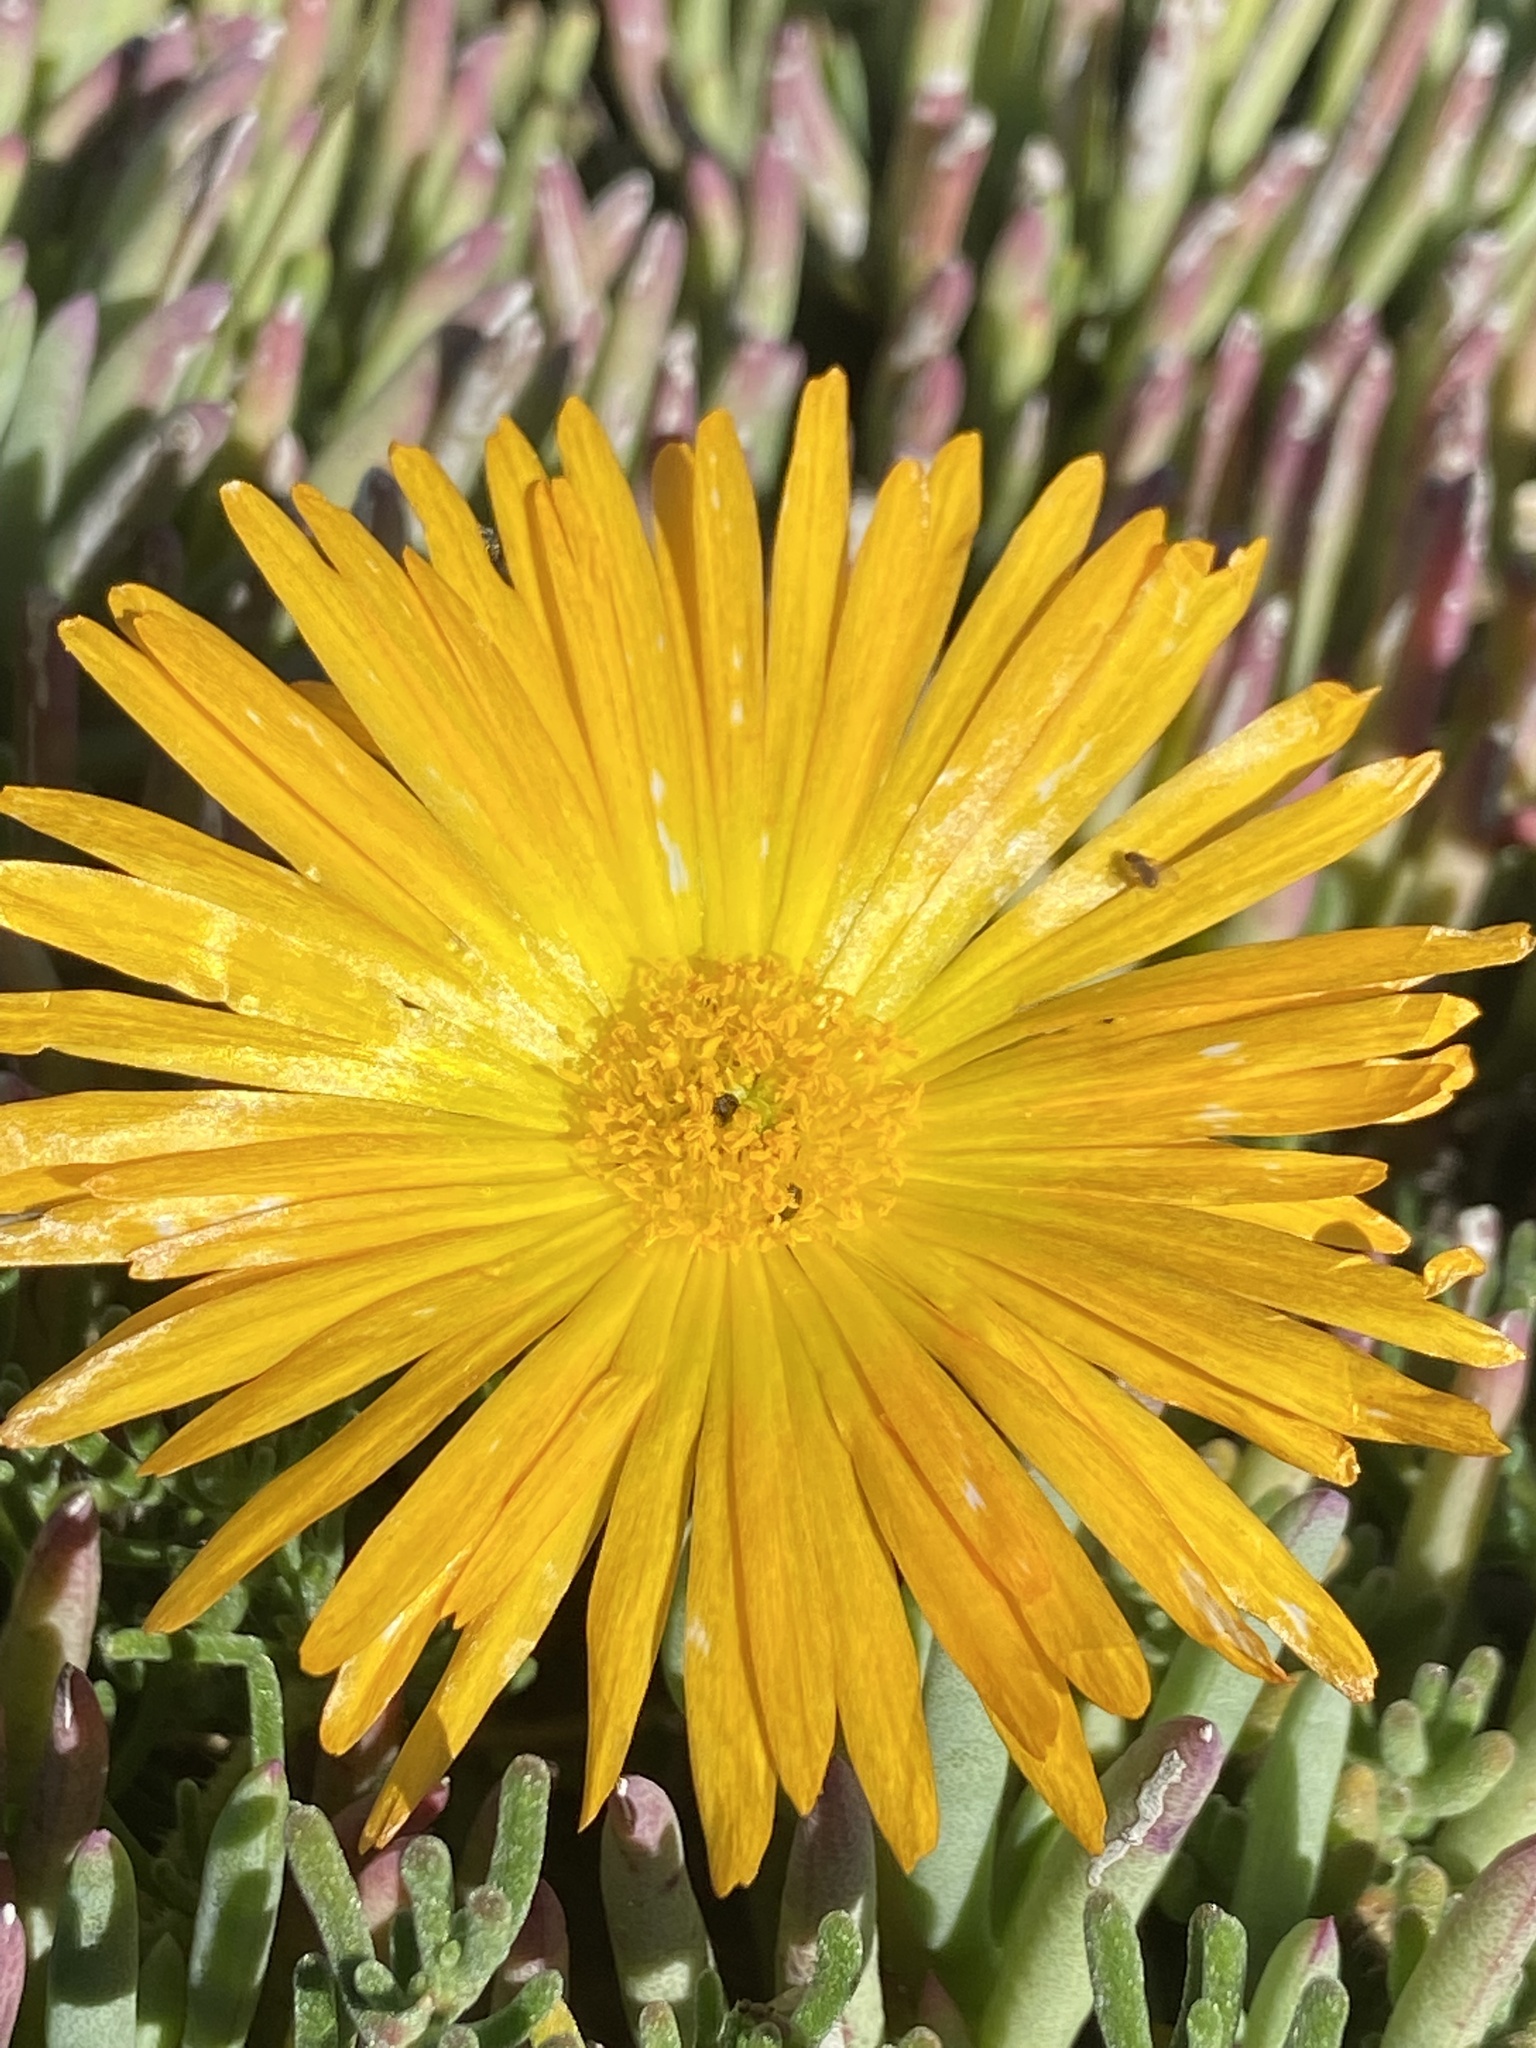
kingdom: Plantae
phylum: Tracheophyta
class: Magnoliopsida
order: Caryophyllales
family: Aizoaceae
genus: Jordaaniella
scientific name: Jordaaniella dubia
